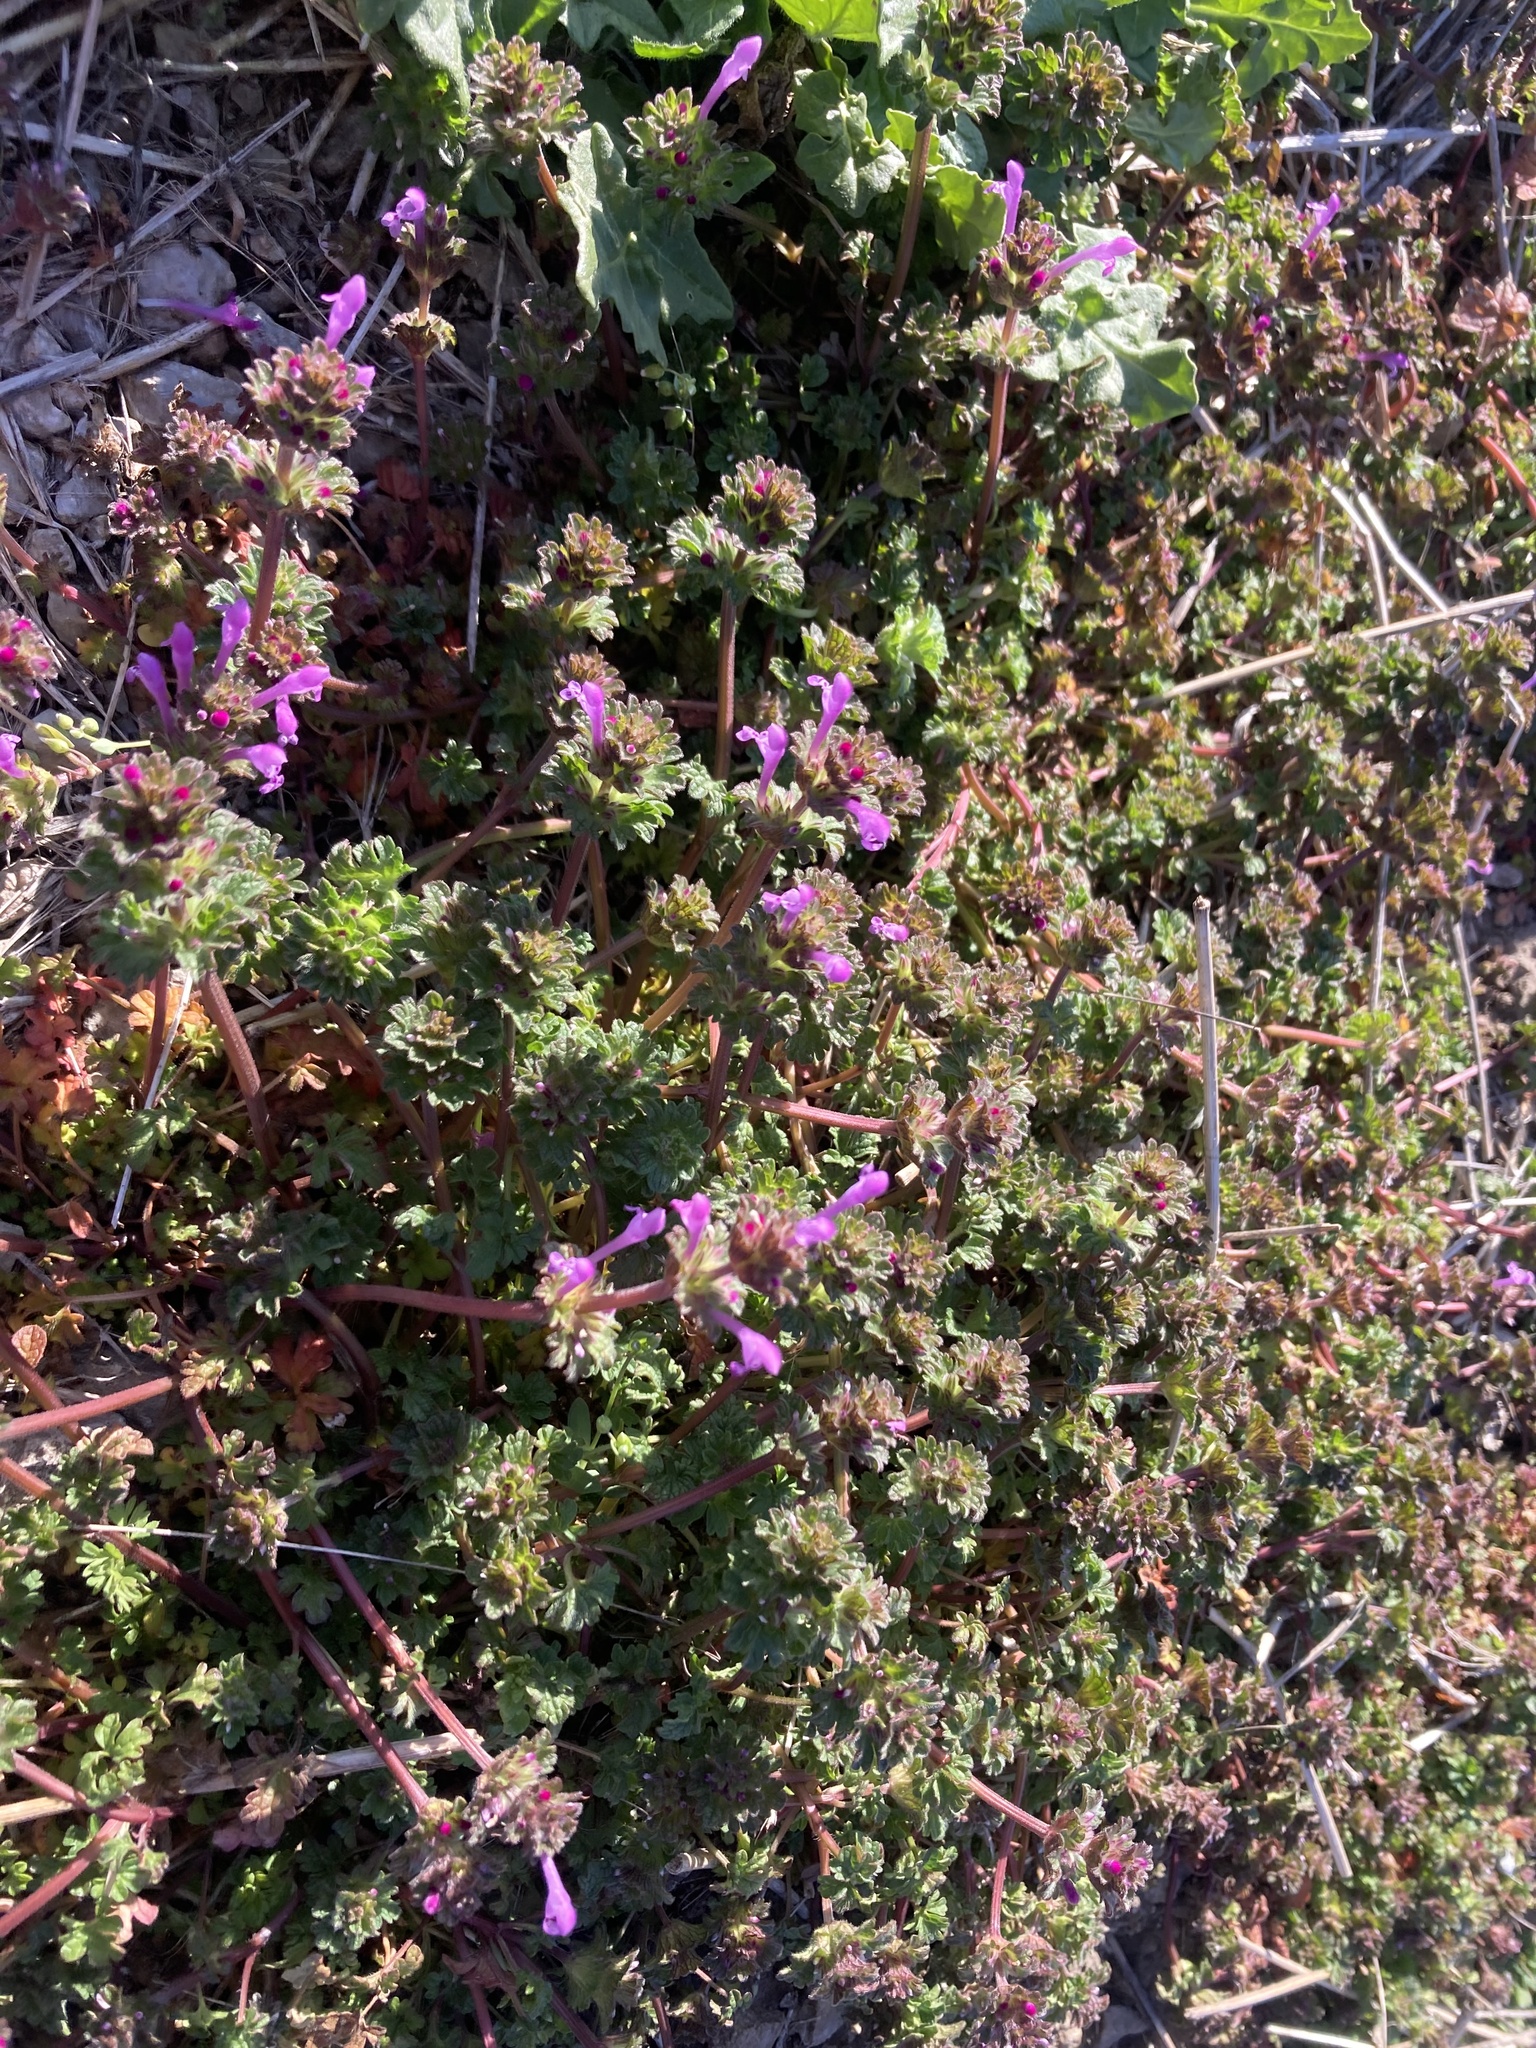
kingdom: Plantae
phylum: Tracheophyta
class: Magnoliopsida
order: Lamiales
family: Lamiaceae
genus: Lamium
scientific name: Lamium amplexicaule
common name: Henbit dead-nettle
